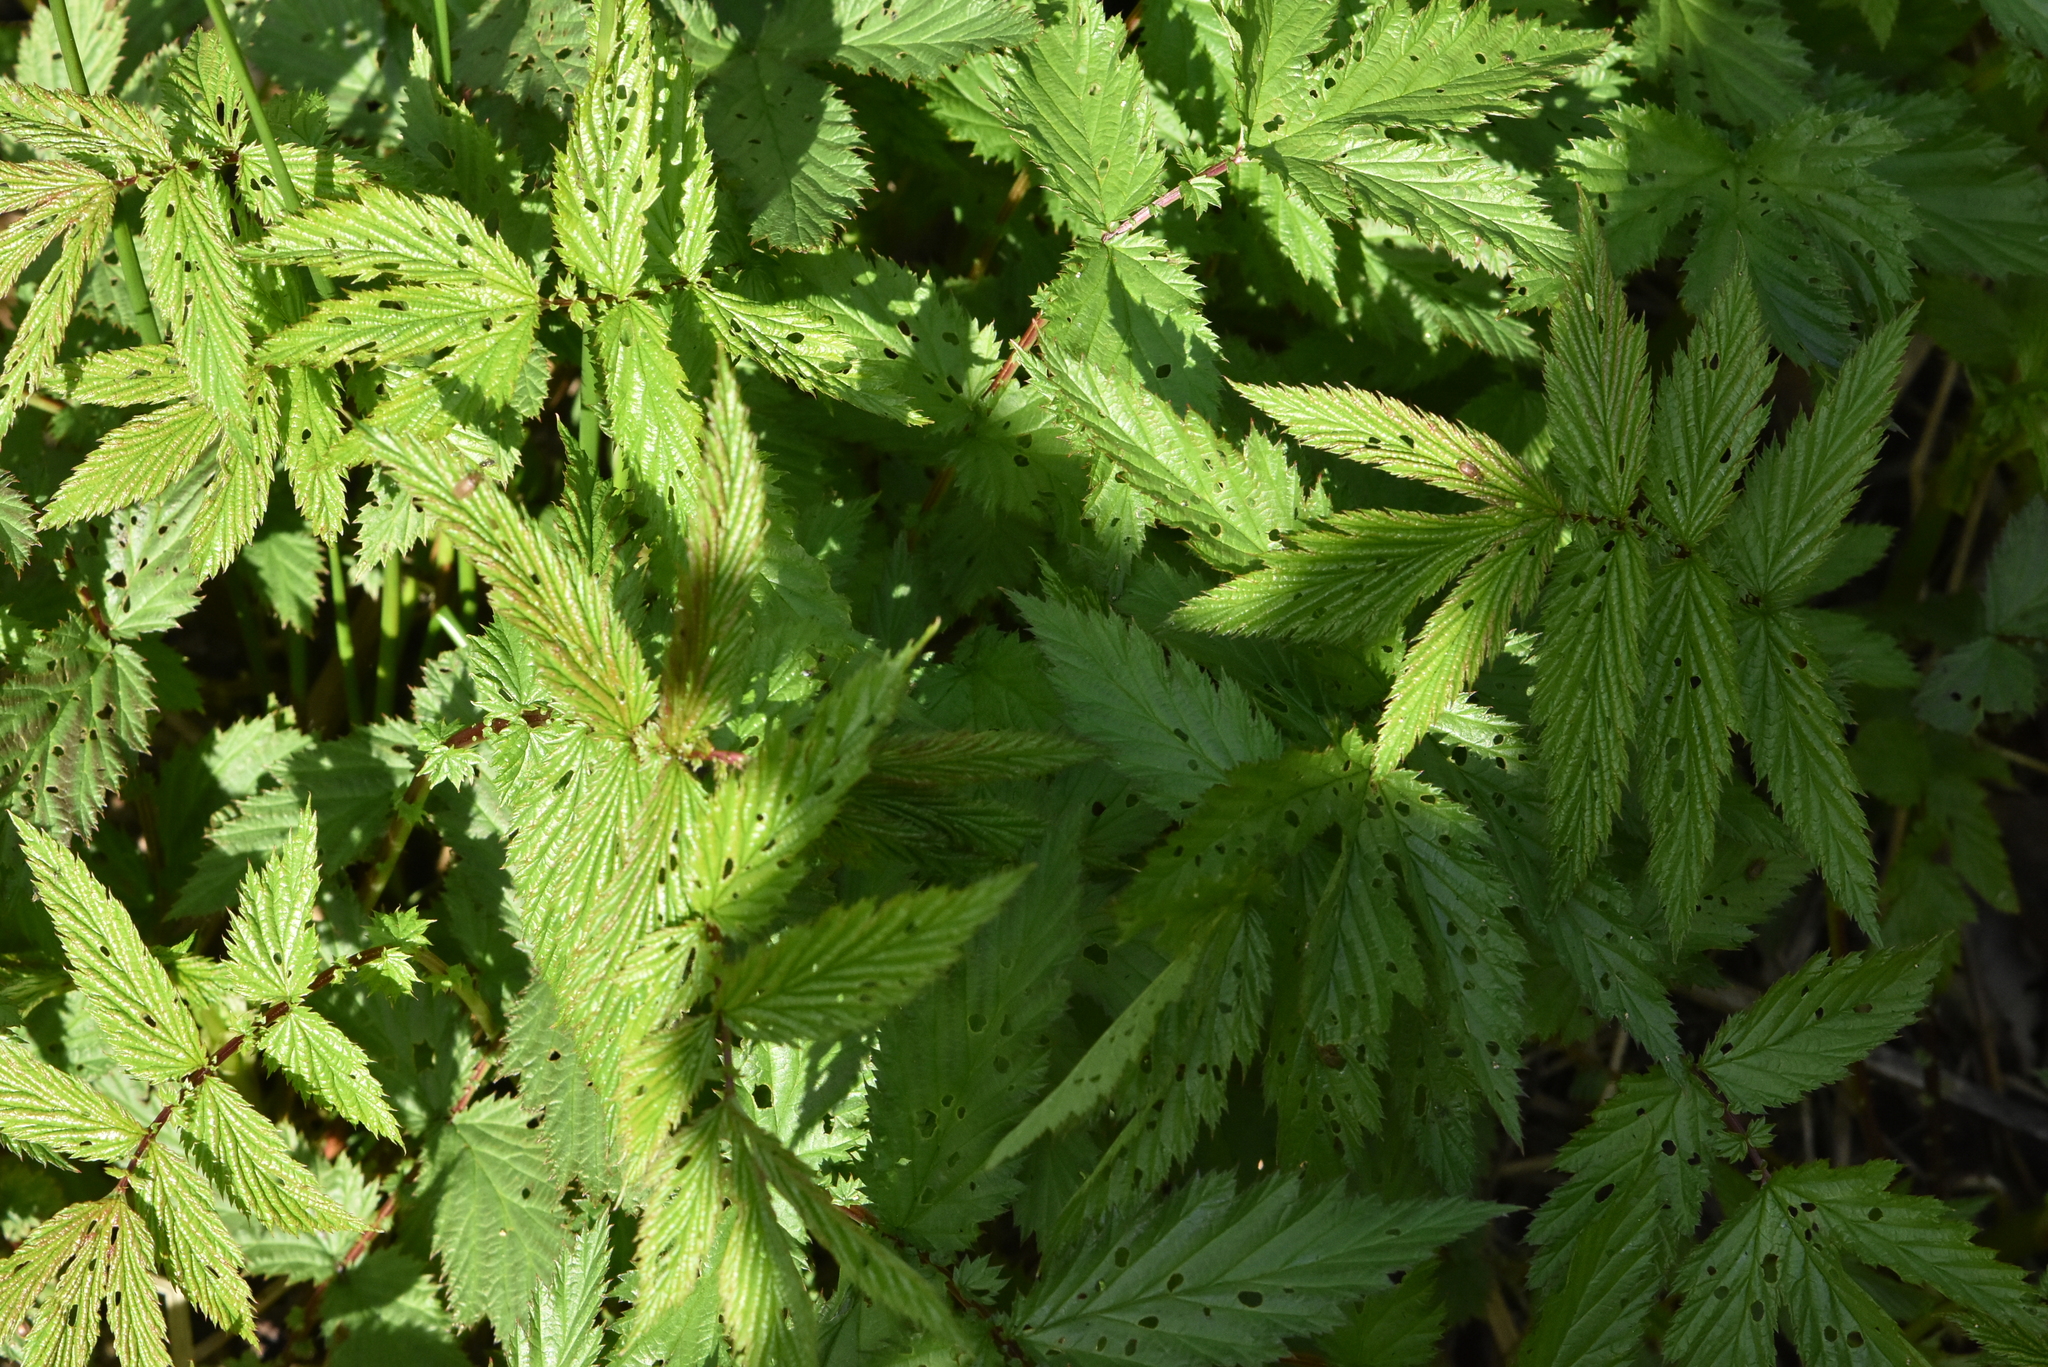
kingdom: Plantae
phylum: Tracheophyta
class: Magnoliopsida
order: Rosales
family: Rosaceae
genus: Filipendula
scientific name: Filipendula ulmaria
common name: Meadowsweet
